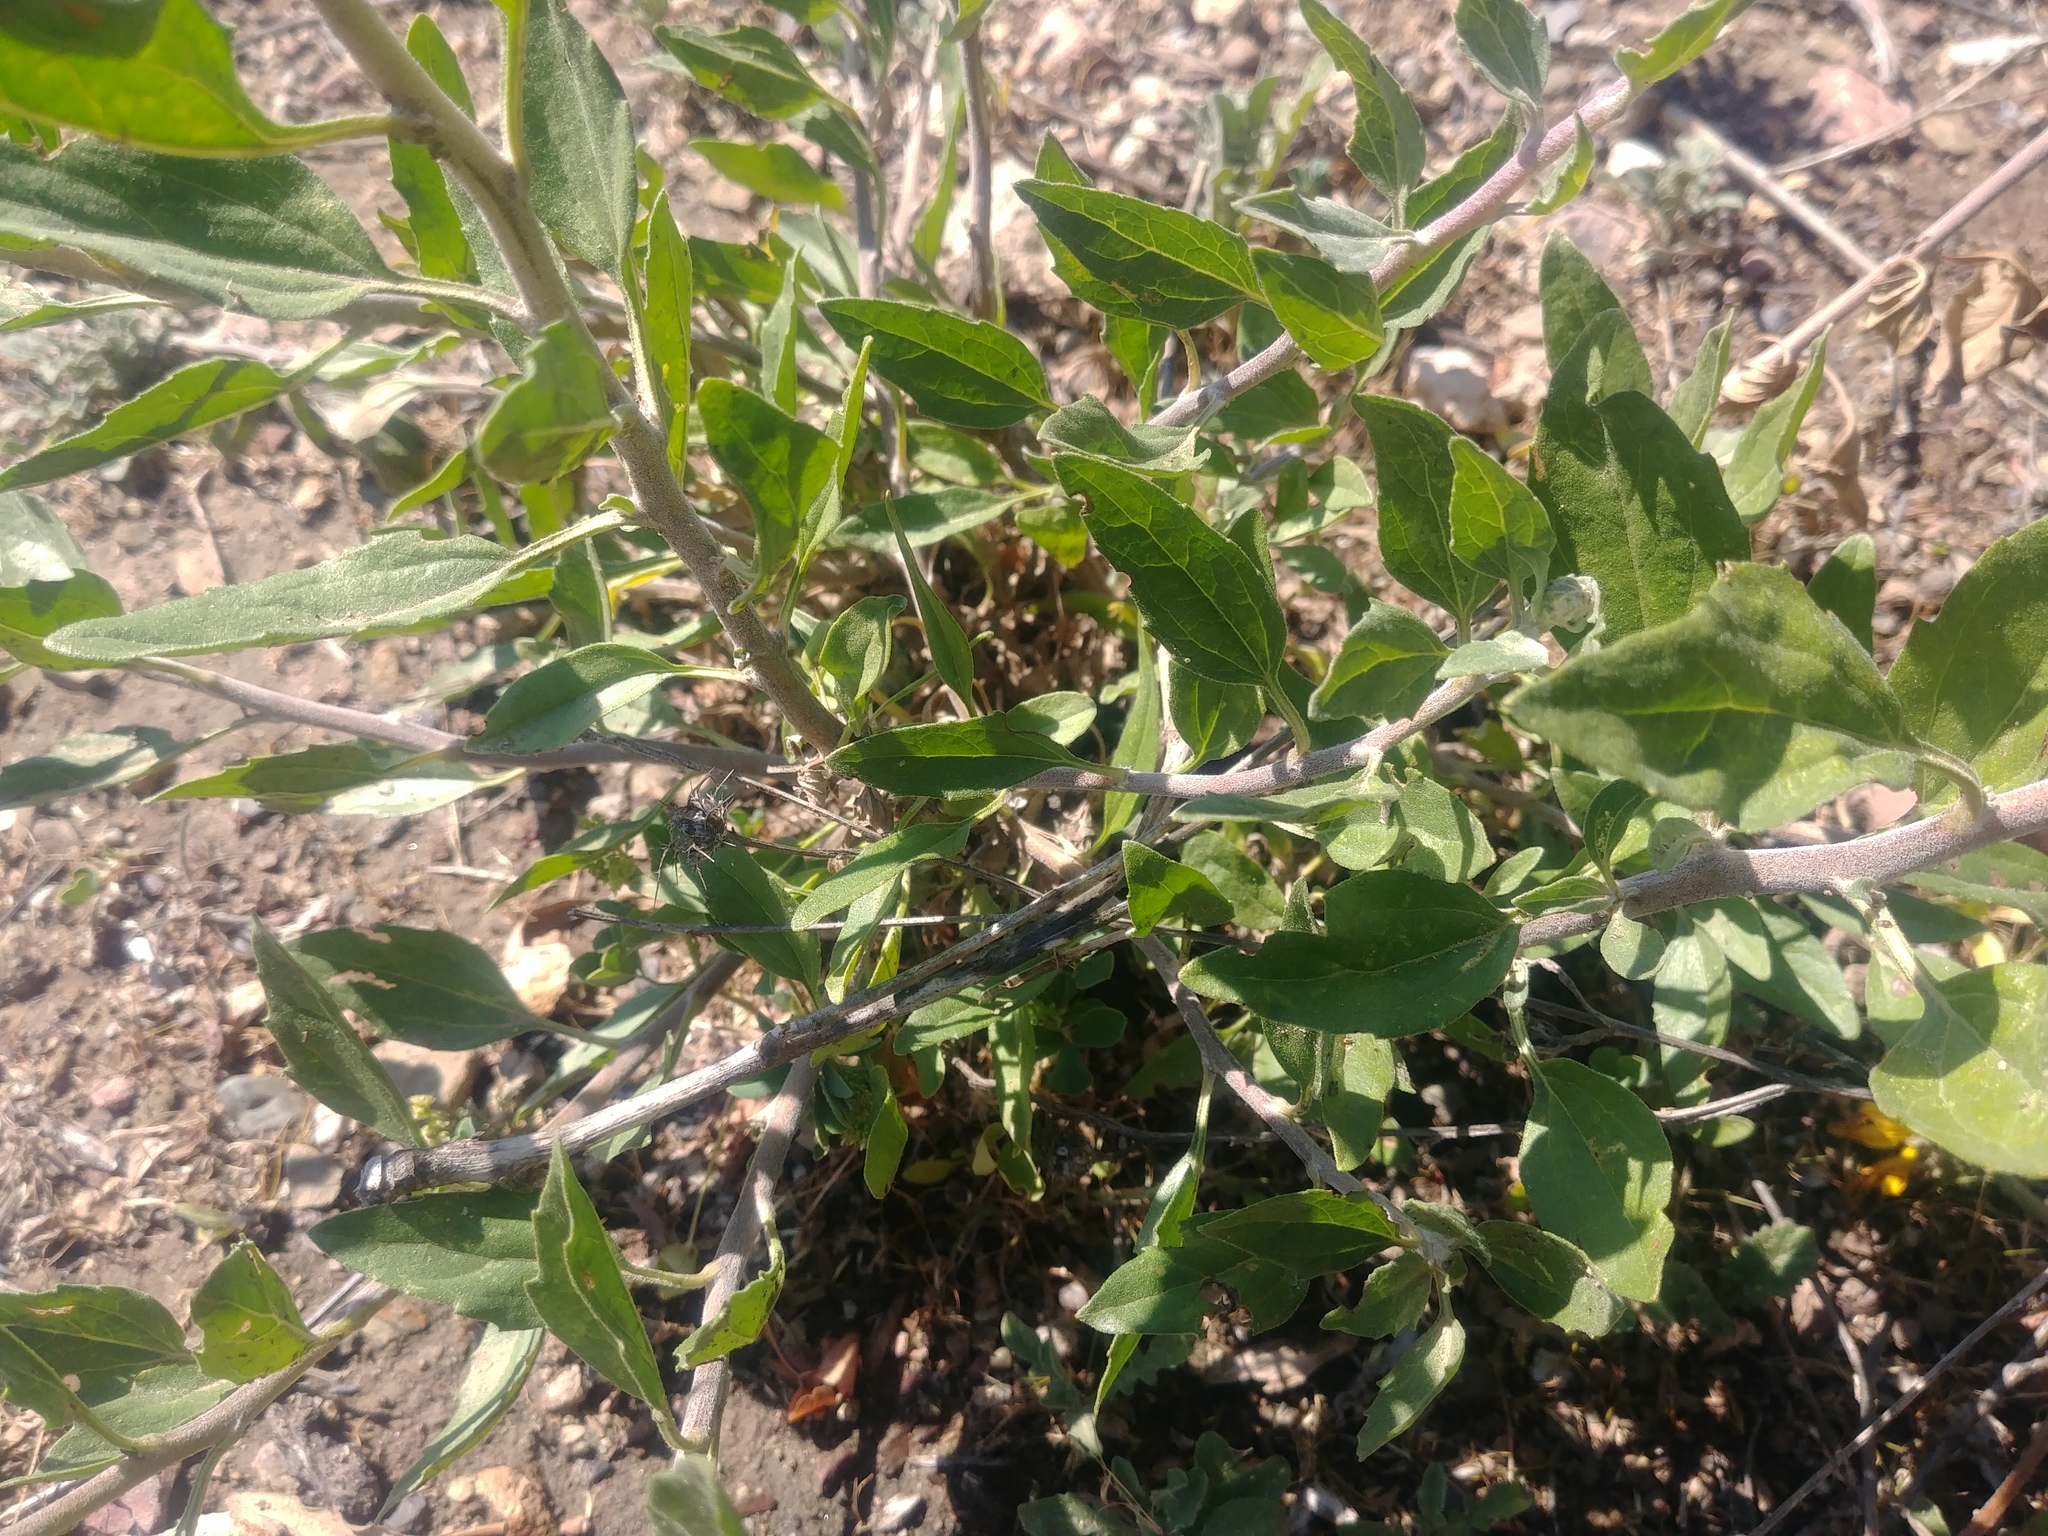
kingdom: Plantae
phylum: Tracheophyta
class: Magnoliopsida
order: Asterales
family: Asteraceae
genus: Encelia
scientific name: Encelia californica
